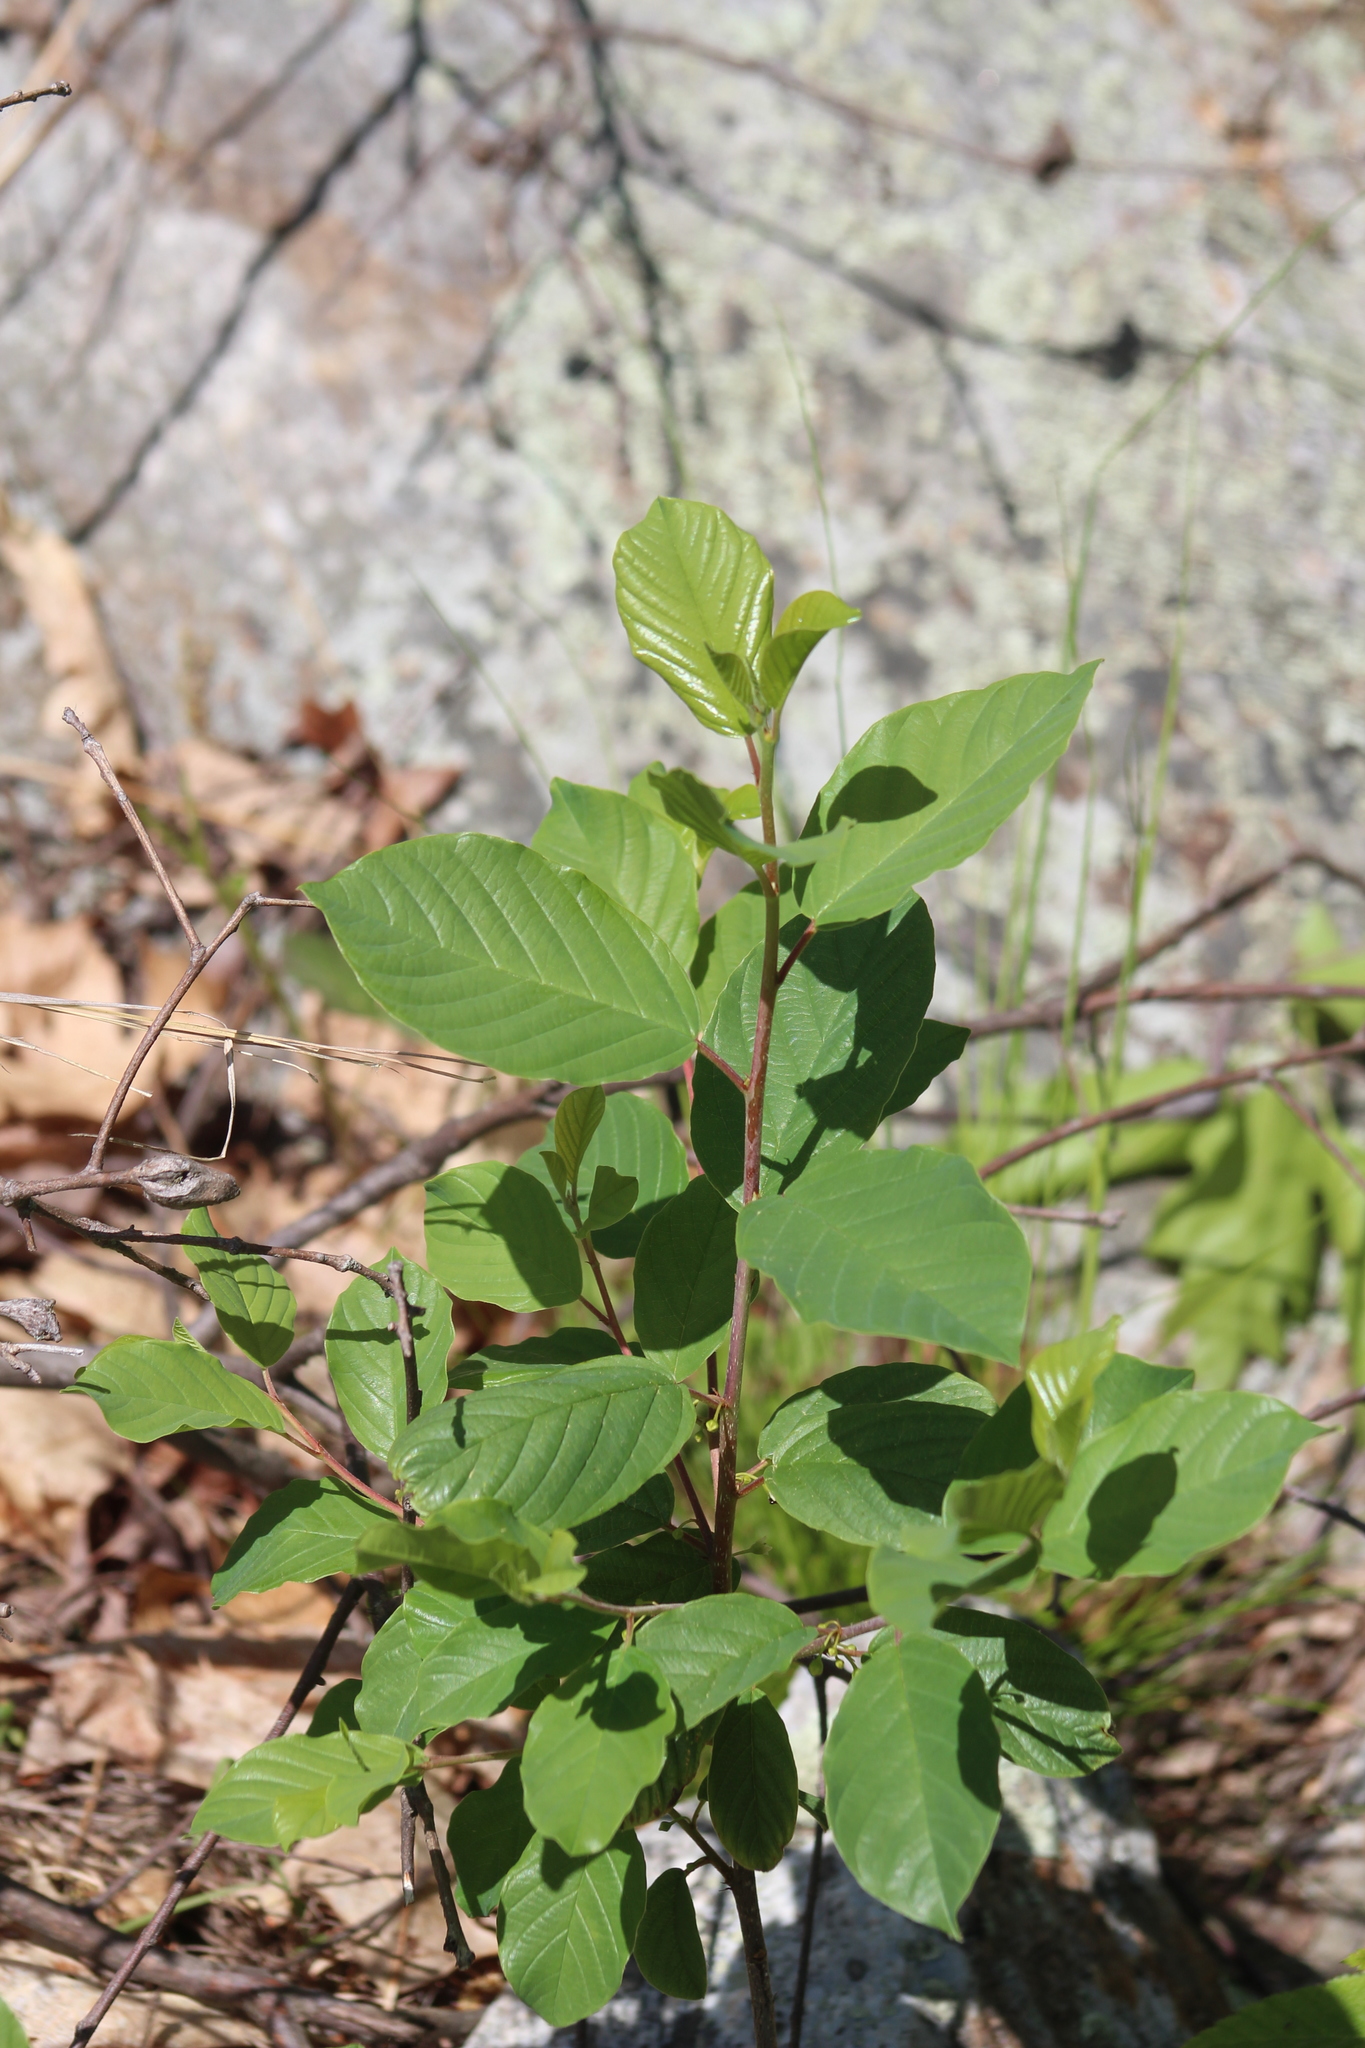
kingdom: Plantae
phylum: Tracheophyta
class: Magnoliopsida
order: Rosales
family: Rhamnaceae
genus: Frangula
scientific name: Frangula alnus
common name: Alder buckthorn
